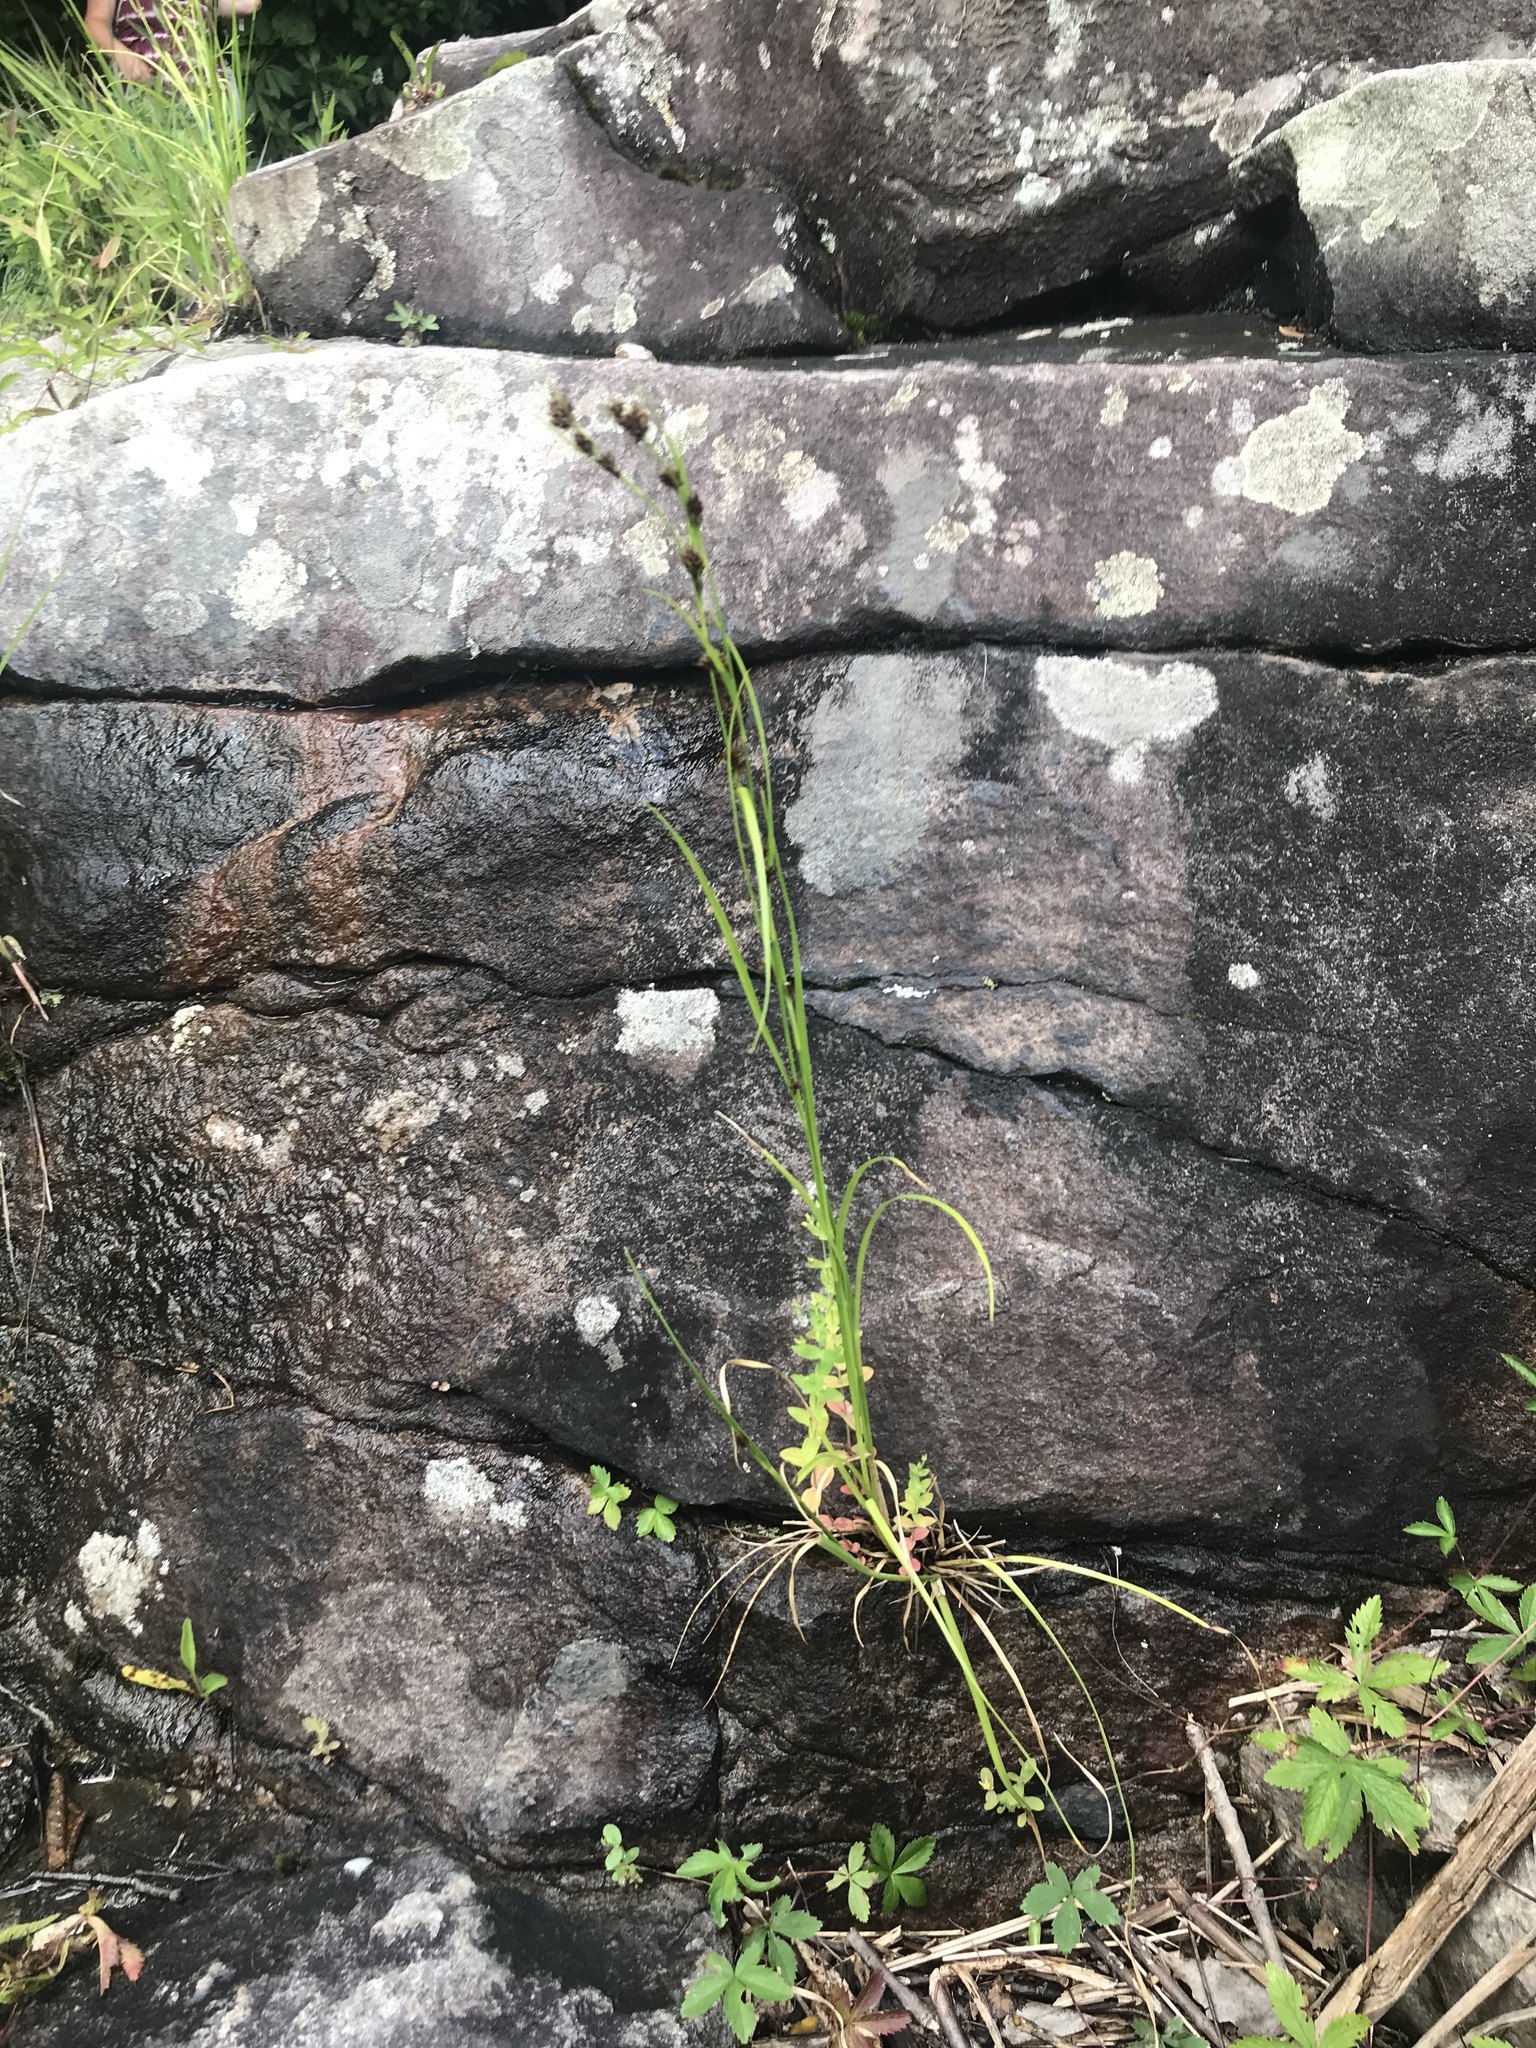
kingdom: Plantae
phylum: Tracheophyta
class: Liliopsida
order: Poales
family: Cyperaceae
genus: Rhynchospora
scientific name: Rhynchospora capitellata
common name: Brownish beaksedge
